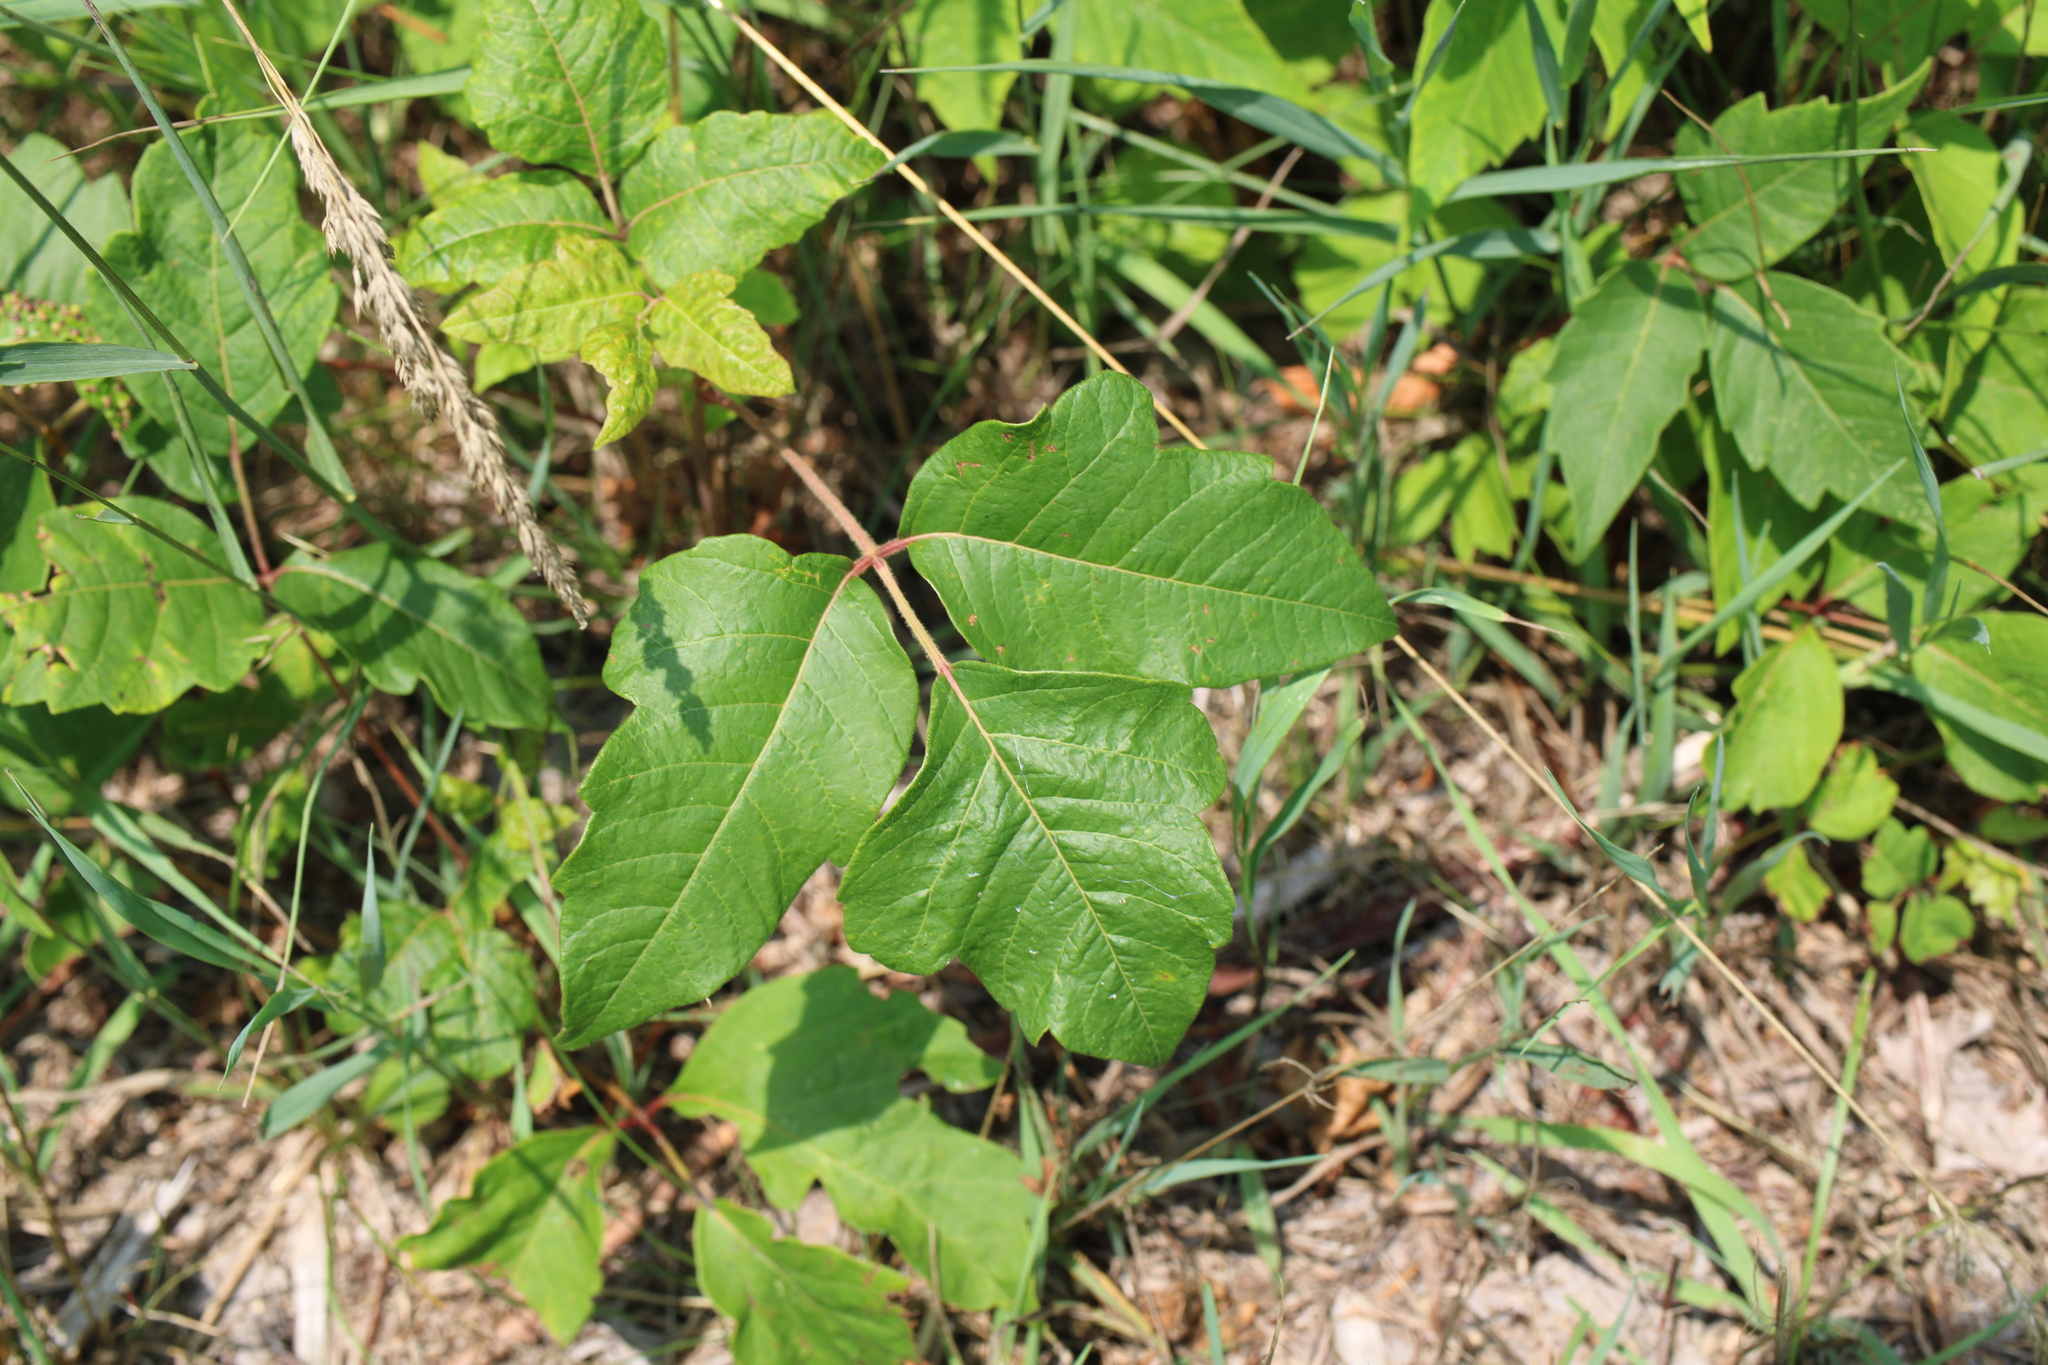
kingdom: Plantae
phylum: Tracheophyta
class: Magnoliopsida
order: Sapindales
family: Anacardiaceae
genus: Toxicodendron
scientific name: Toxicodendron radicans
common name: Poison ivy
